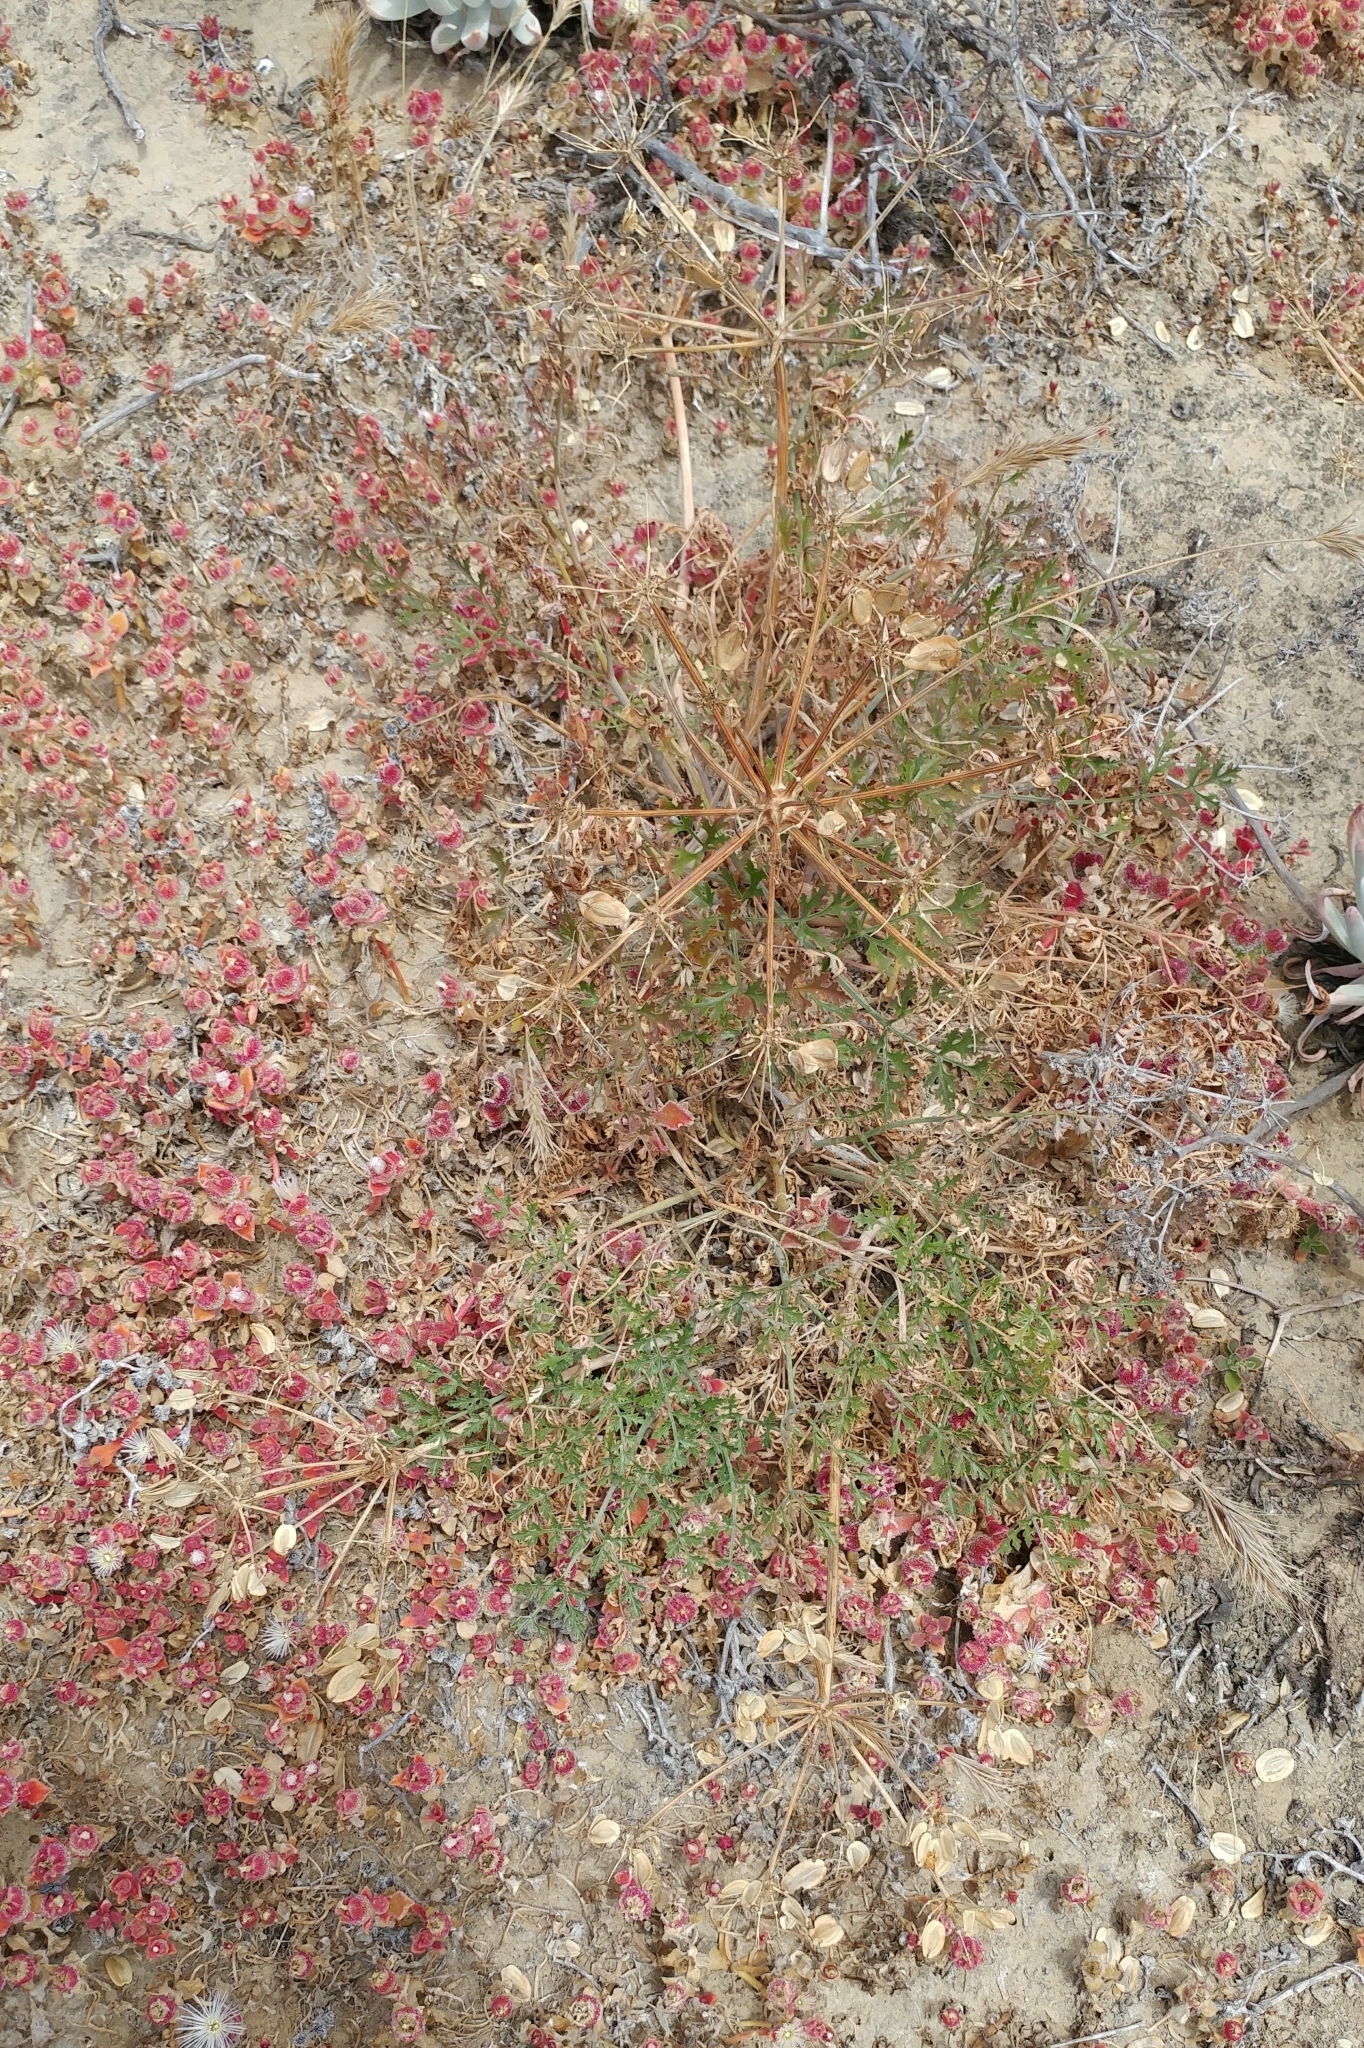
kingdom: Plantae
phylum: Tracheophyta
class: Magnoliopsida
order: Apiales
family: Apiaceae
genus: Lomatium
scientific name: Lomatium insulare
